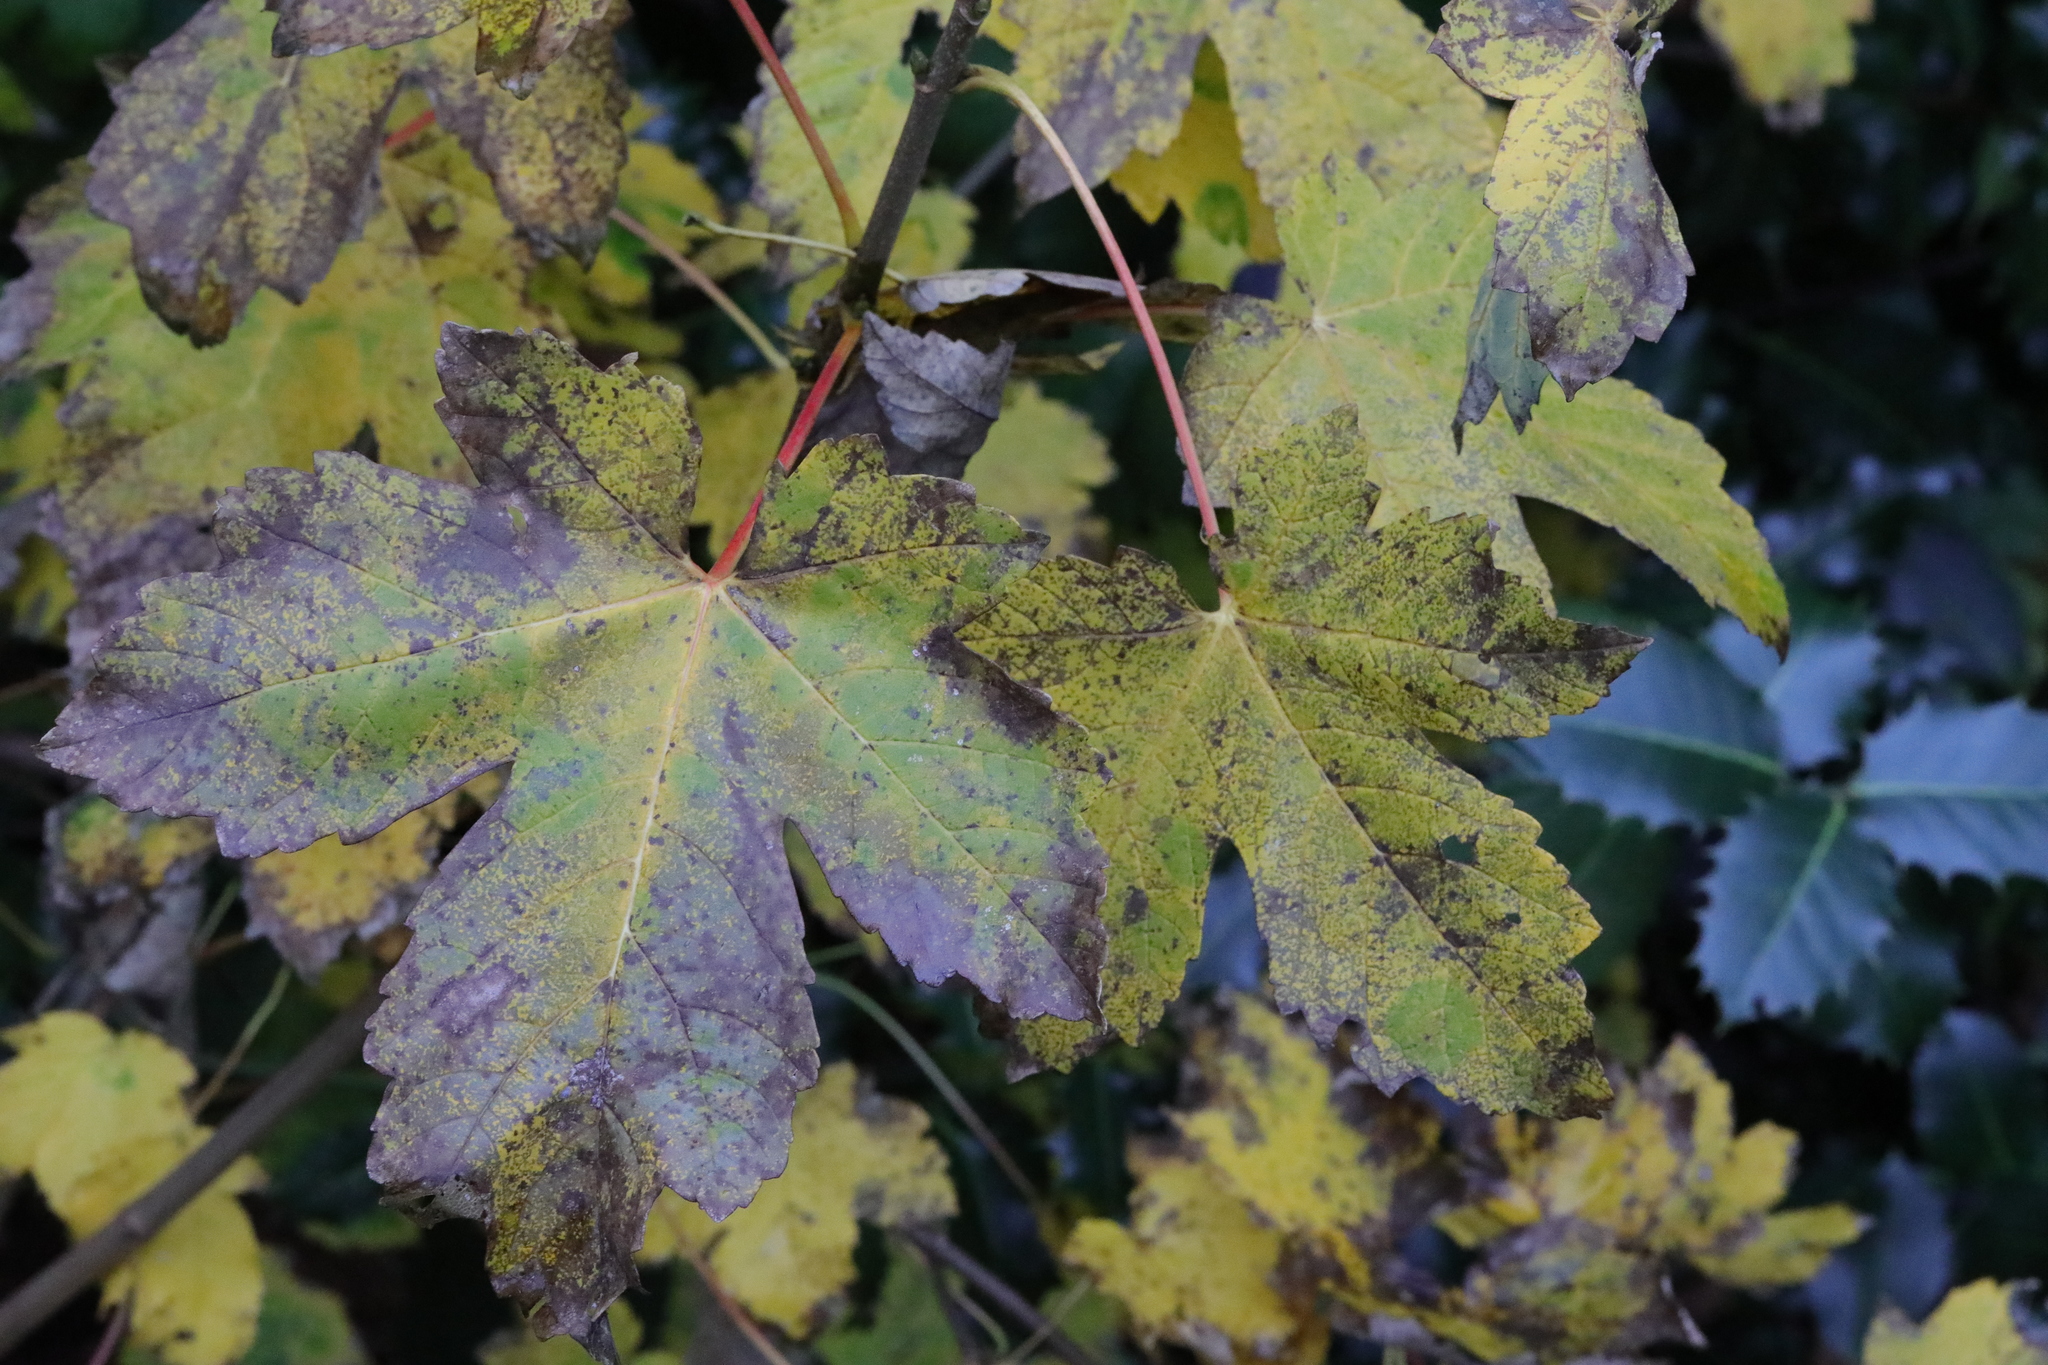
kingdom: Plantae
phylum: Tracheophyta
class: Magnoliopsida
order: Sapindales
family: Sapindaceae
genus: Acer
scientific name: Acer pseudoplatanus
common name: Sycamore
